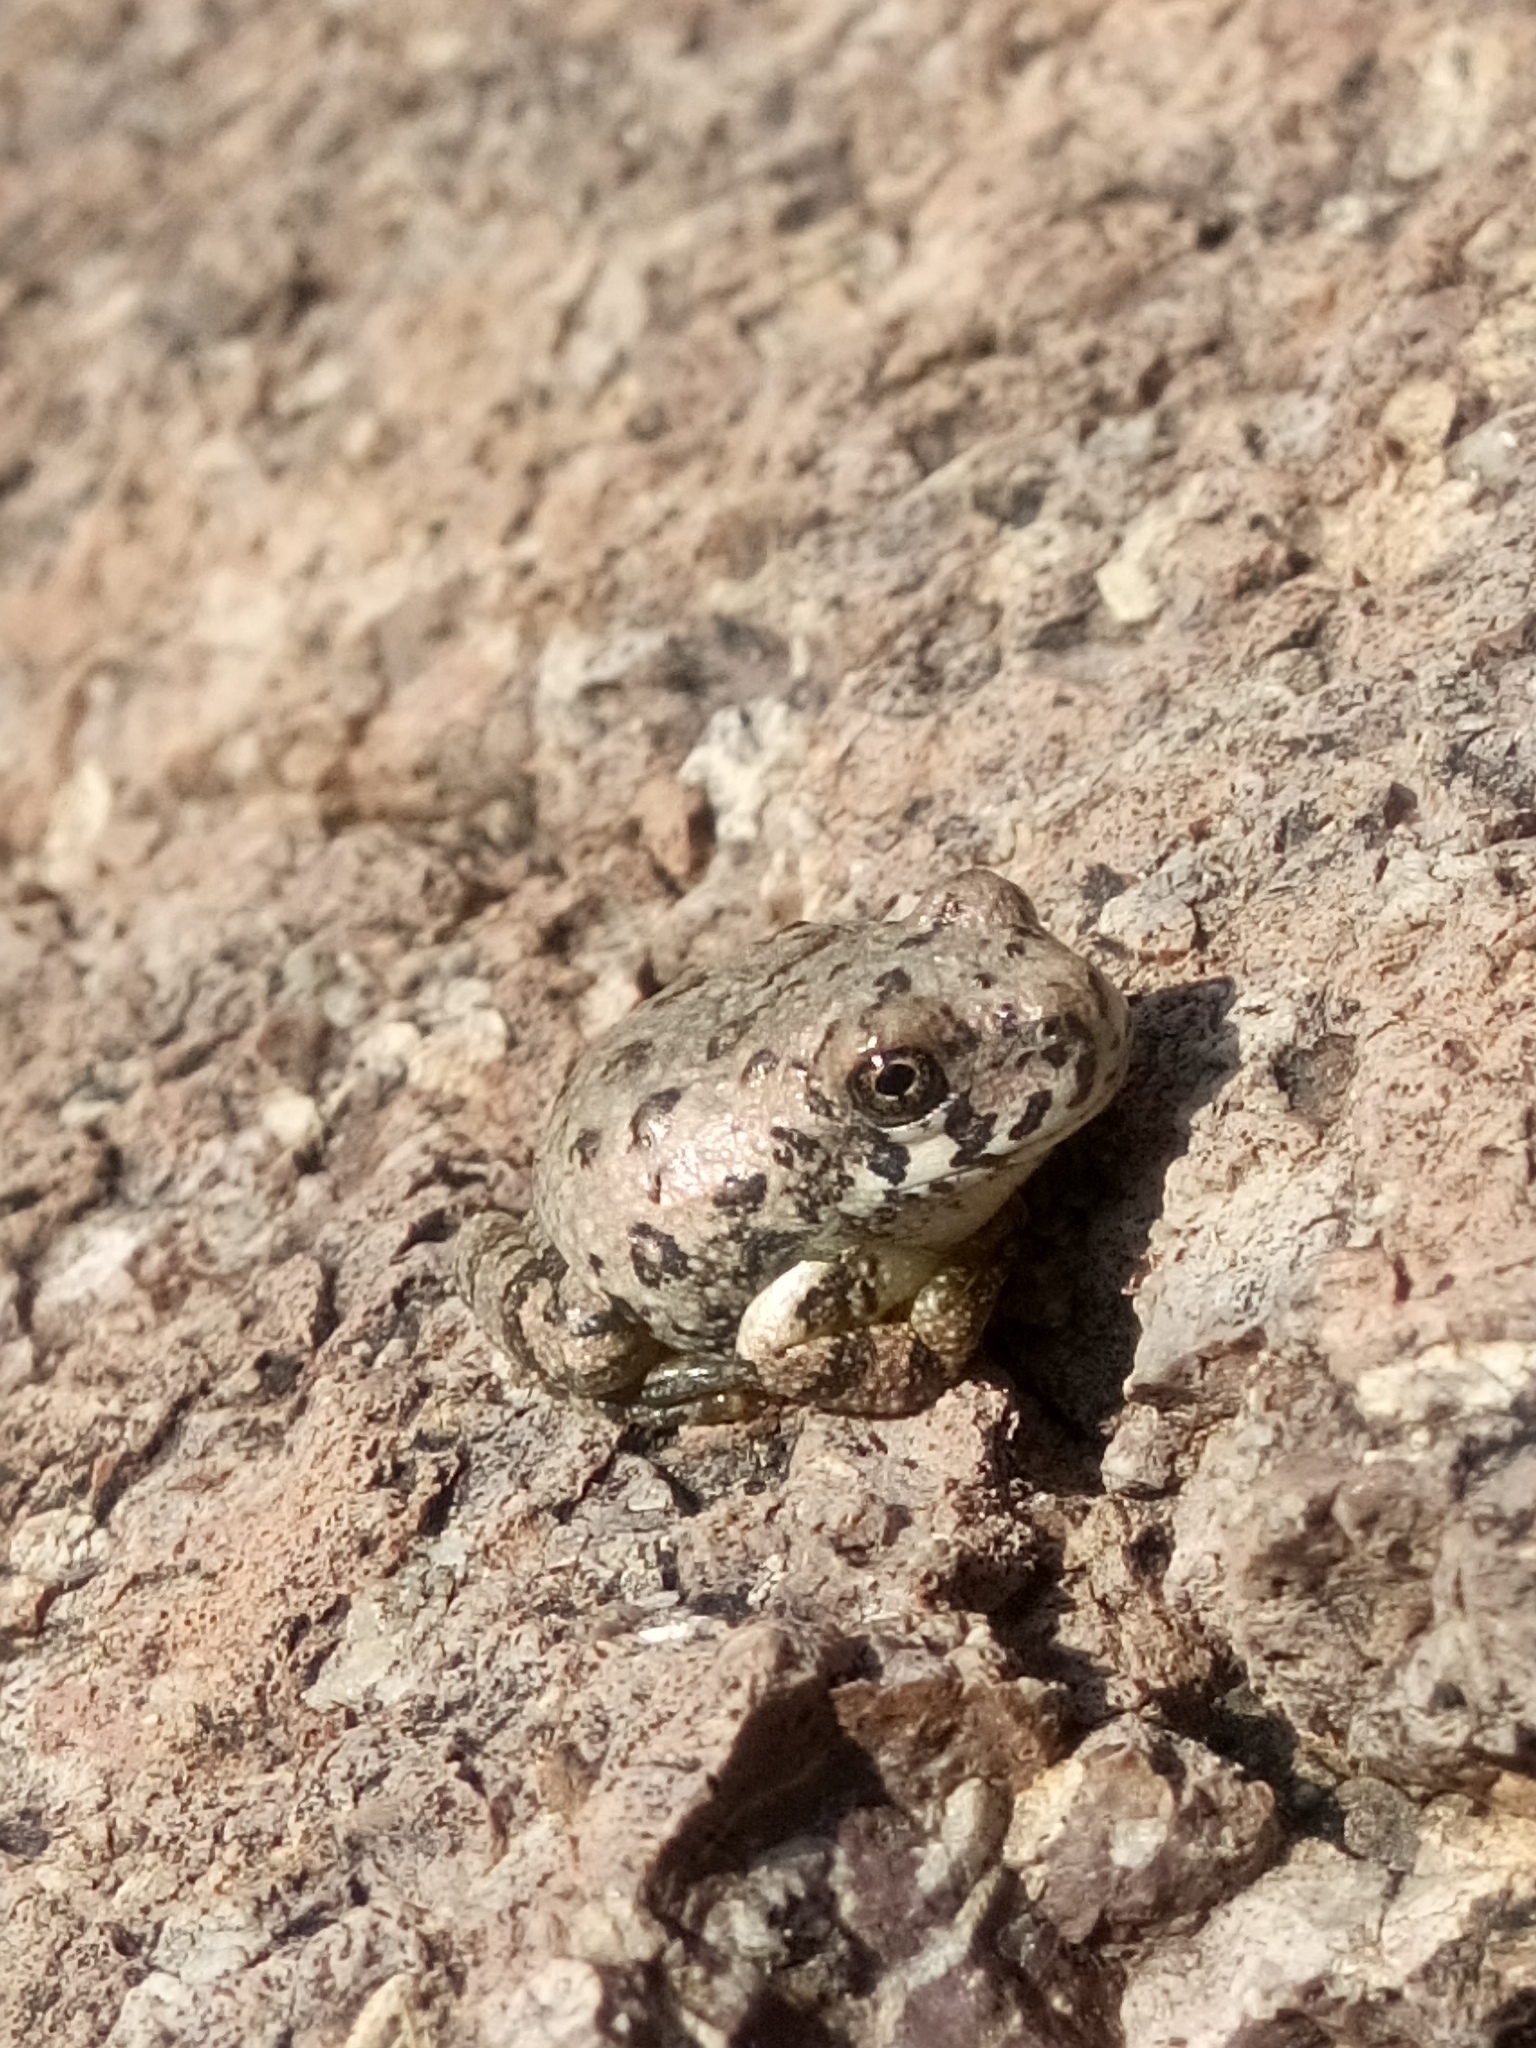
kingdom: Animalia
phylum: Chordata
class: Amphibia
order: Anura
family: Hylidae
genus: Dryophytes
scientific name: Dryophytes arenicolor
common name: Canyon treefrog
